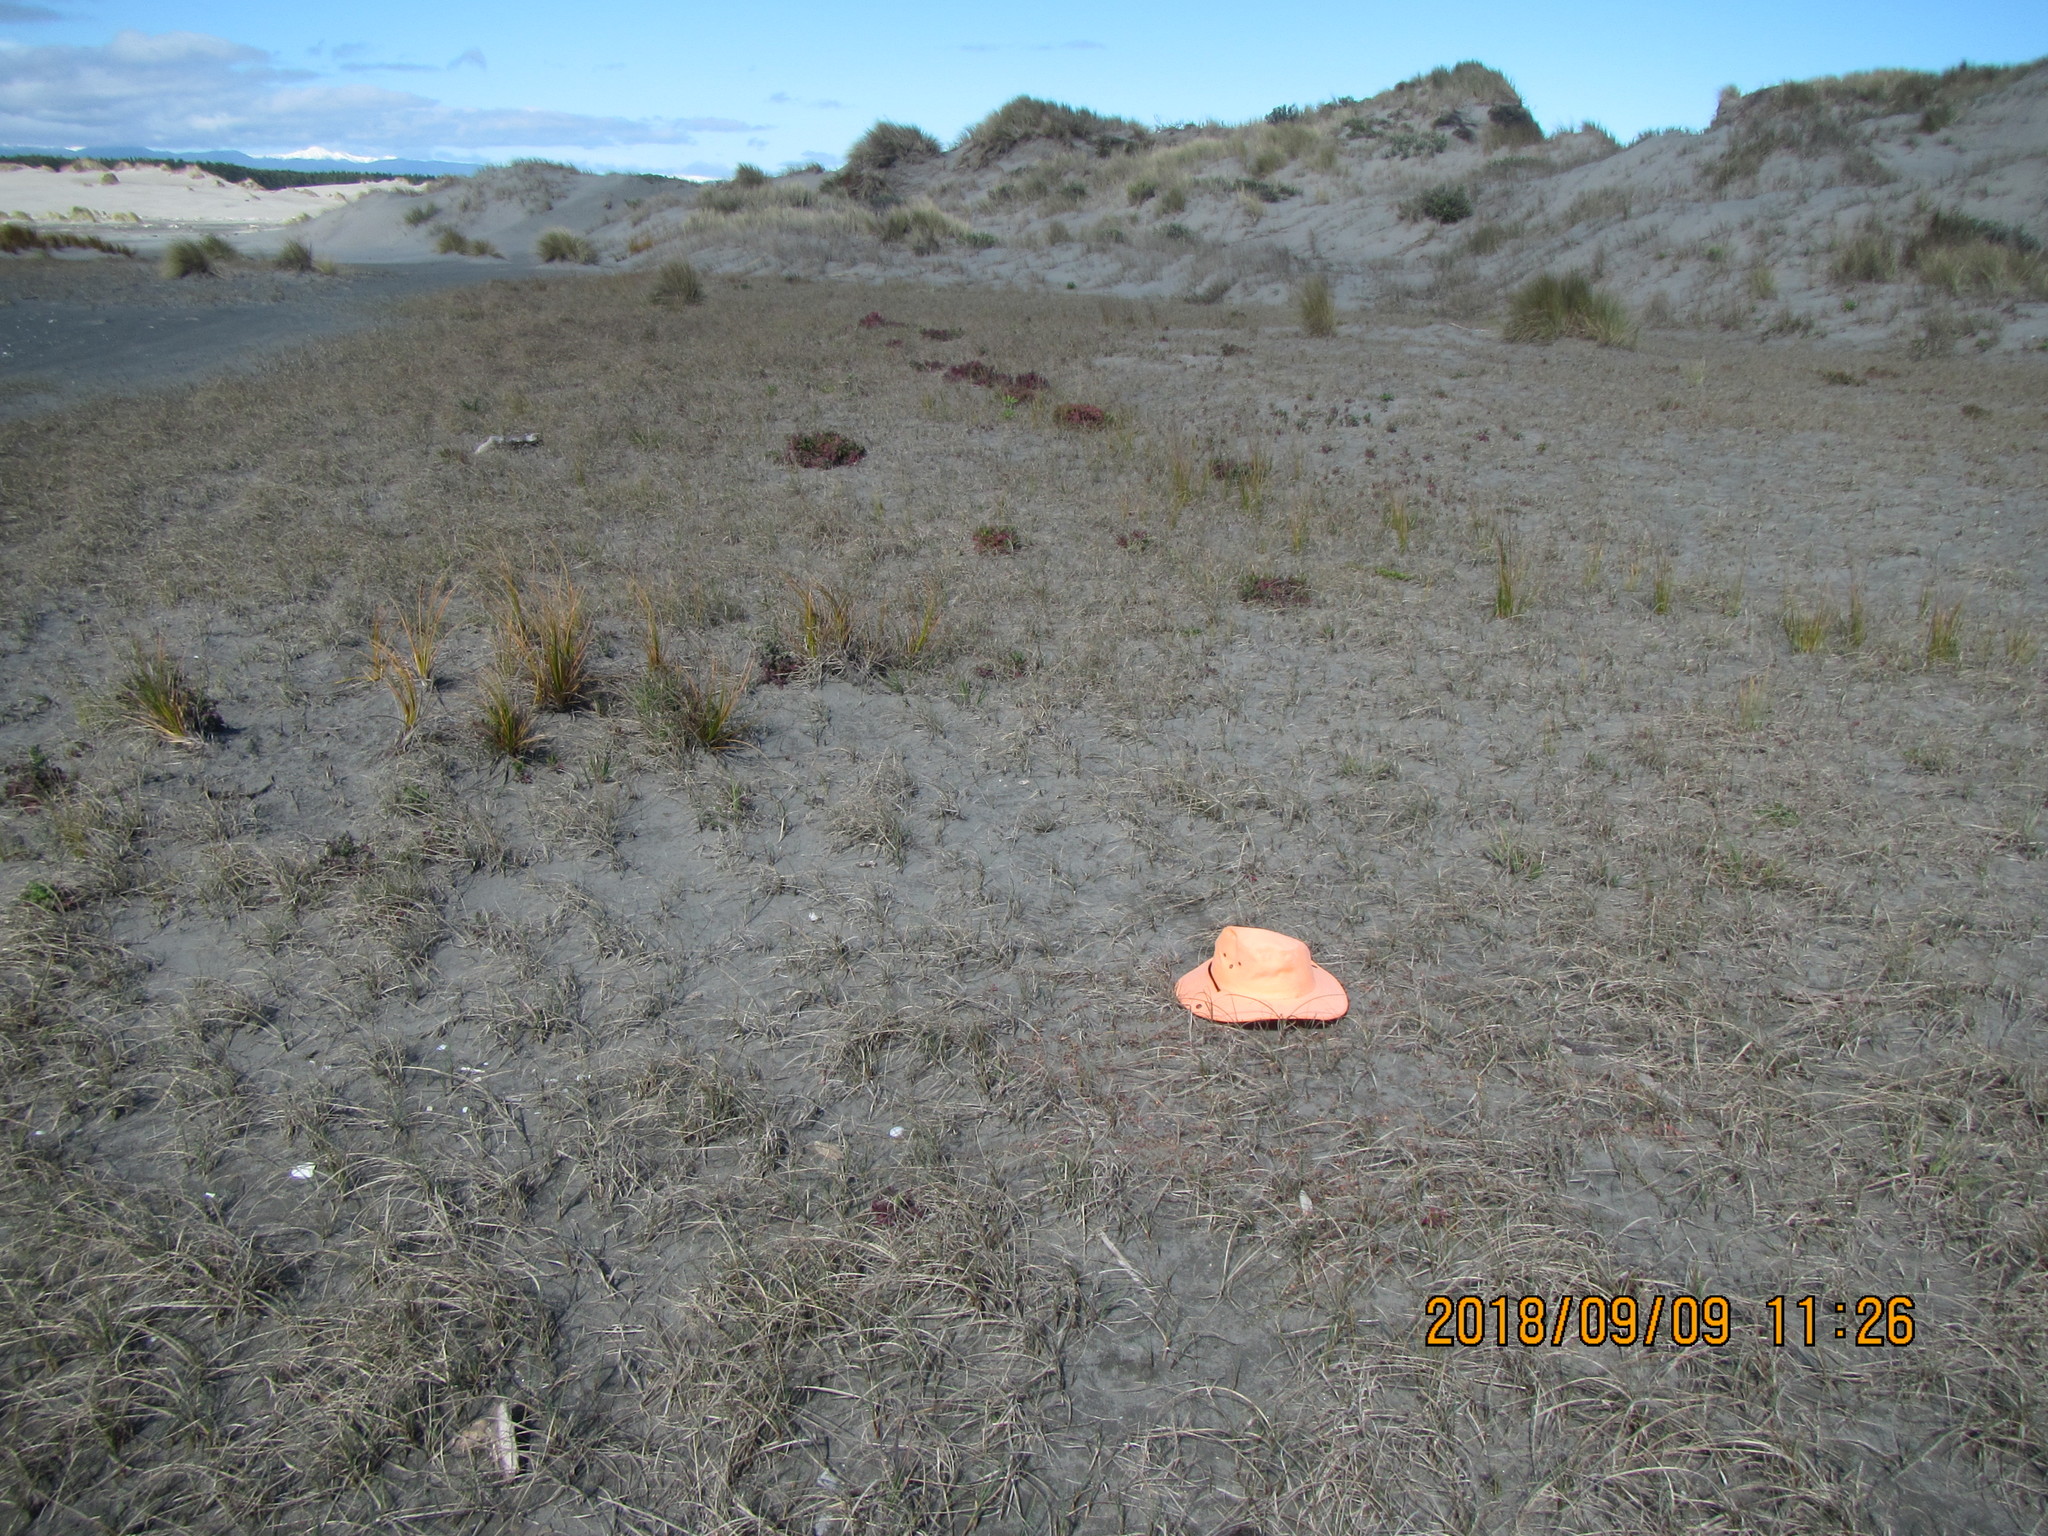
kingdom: Plantae
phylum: Tracheophyta
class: Magnoliopsida
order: Ericales
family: Primulaceae
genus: Samolus
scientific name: Samolus repens
